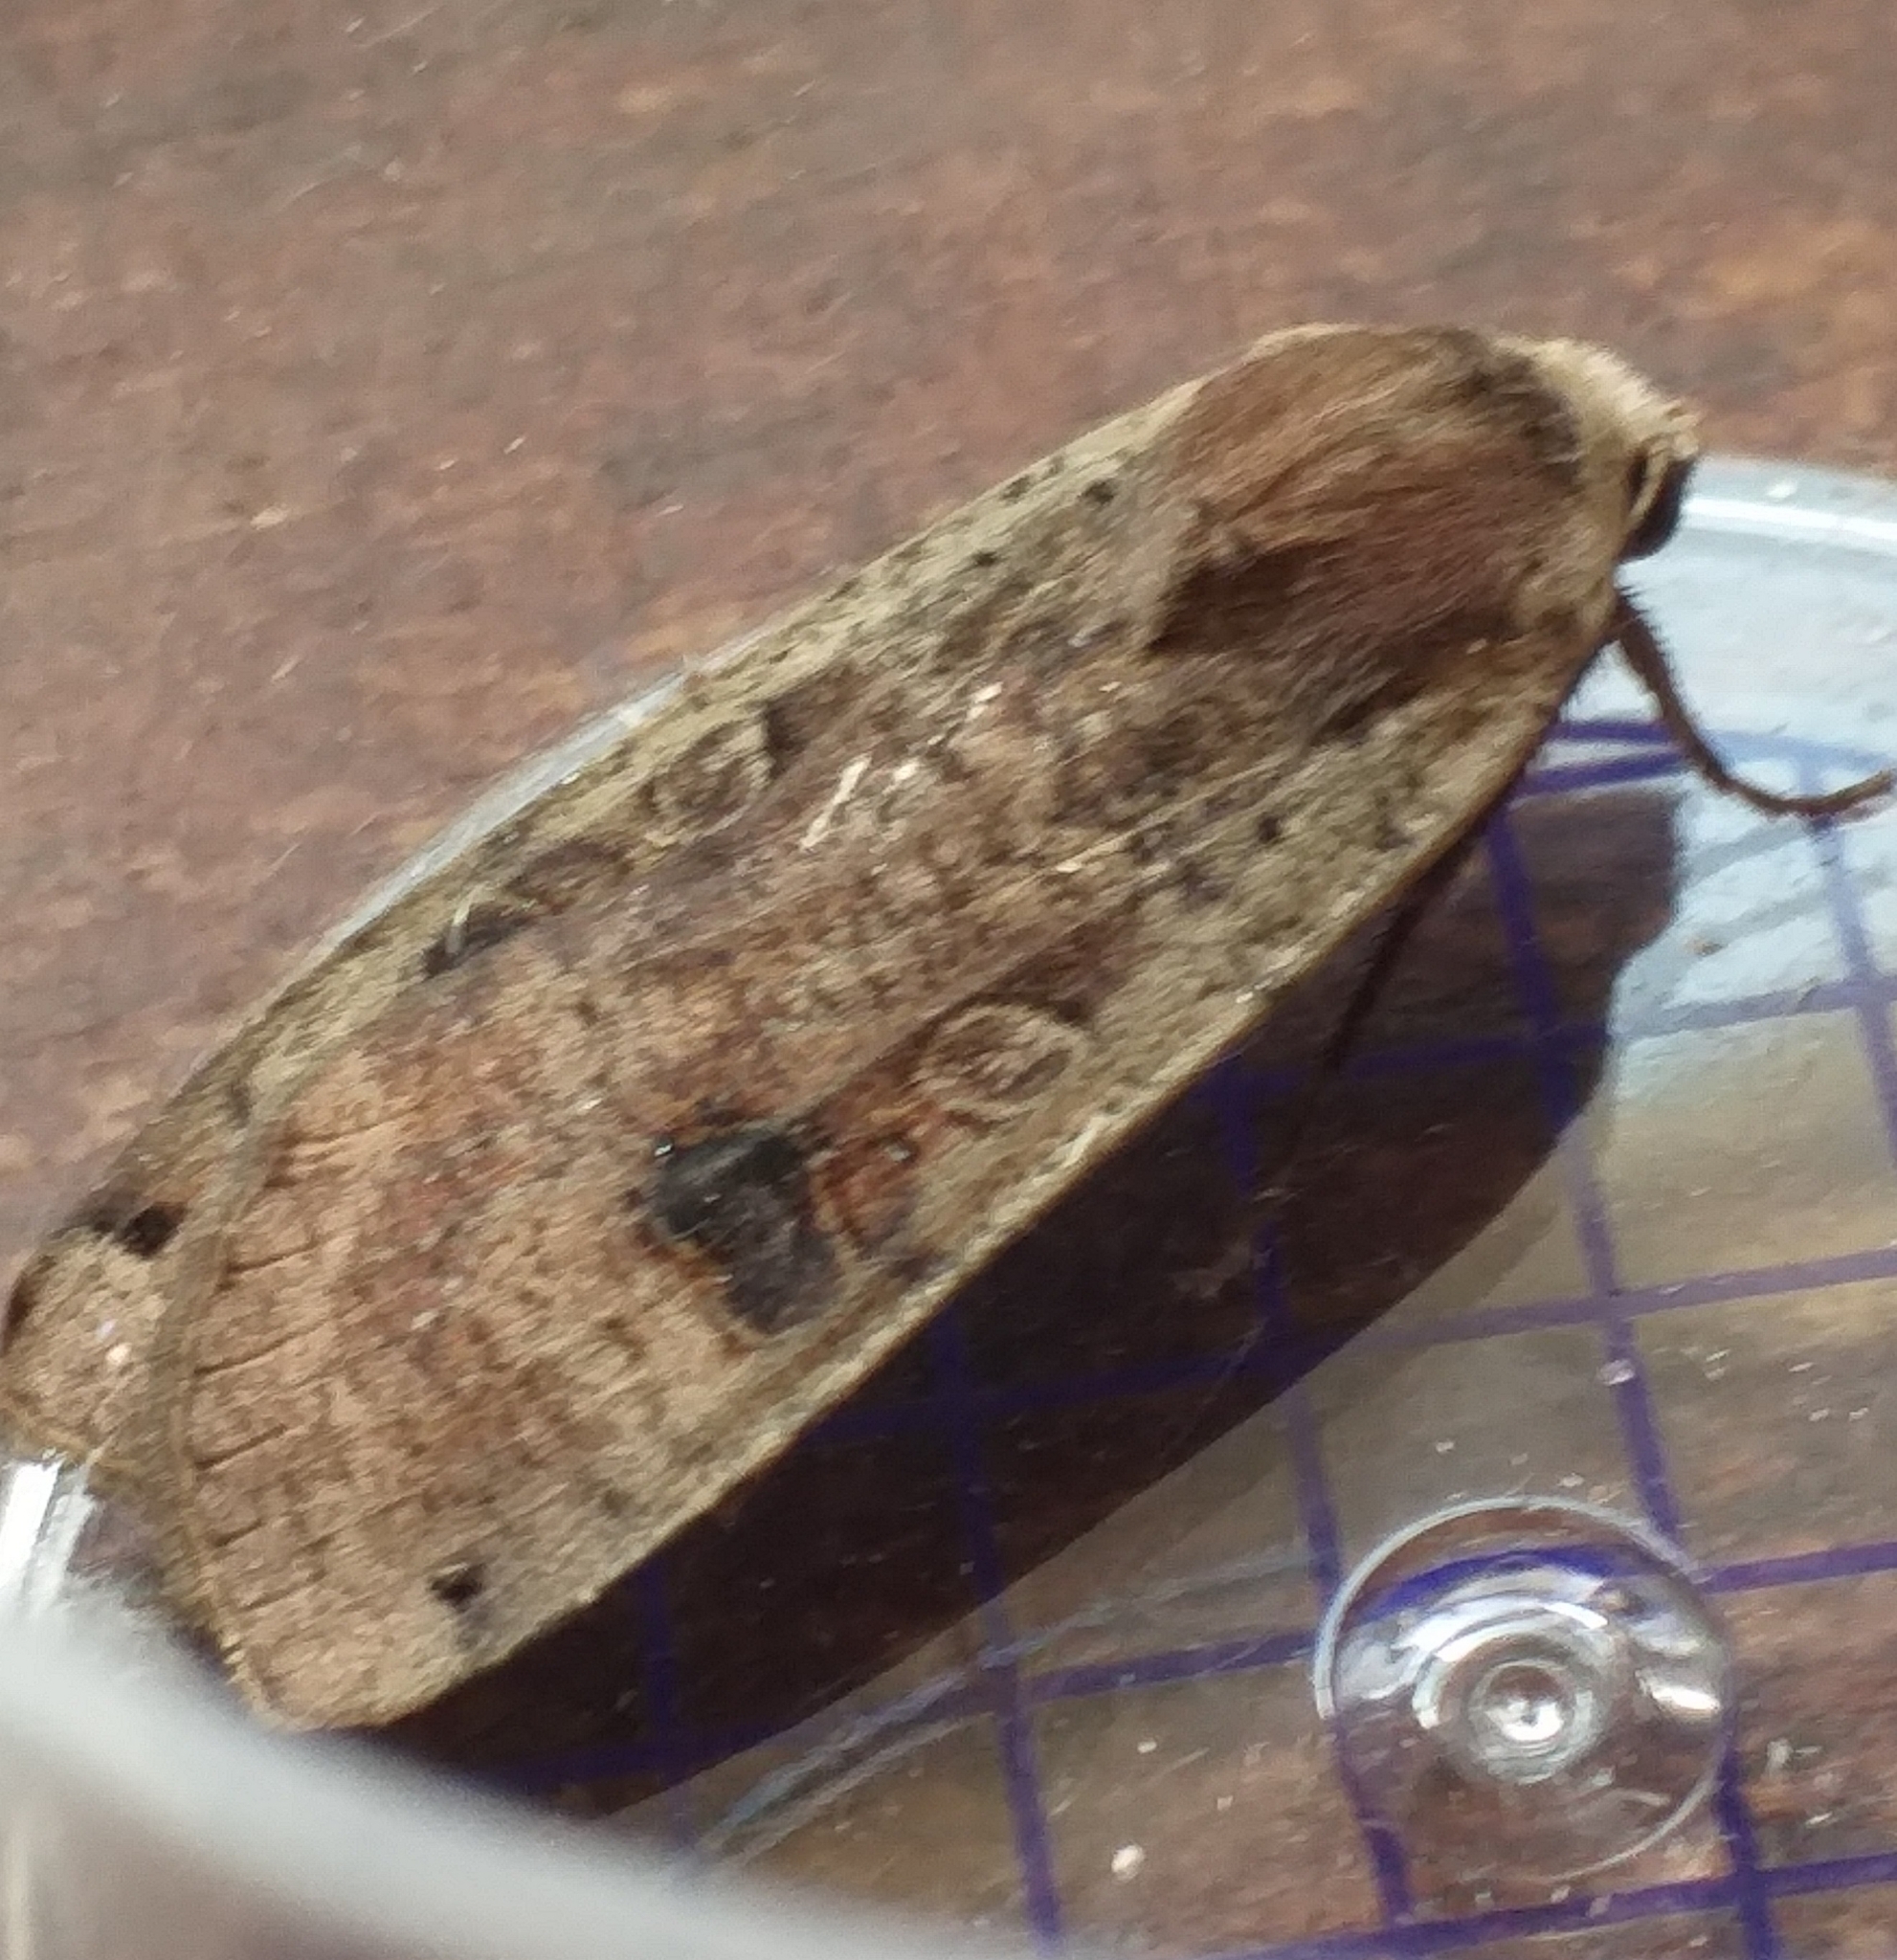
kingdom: Animalia
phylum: Arthropoda
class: Insecta
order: Lepidoptera
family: Noctuidae
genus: Noctua
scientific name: Noctua pronuba
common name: Large yellow underwing
